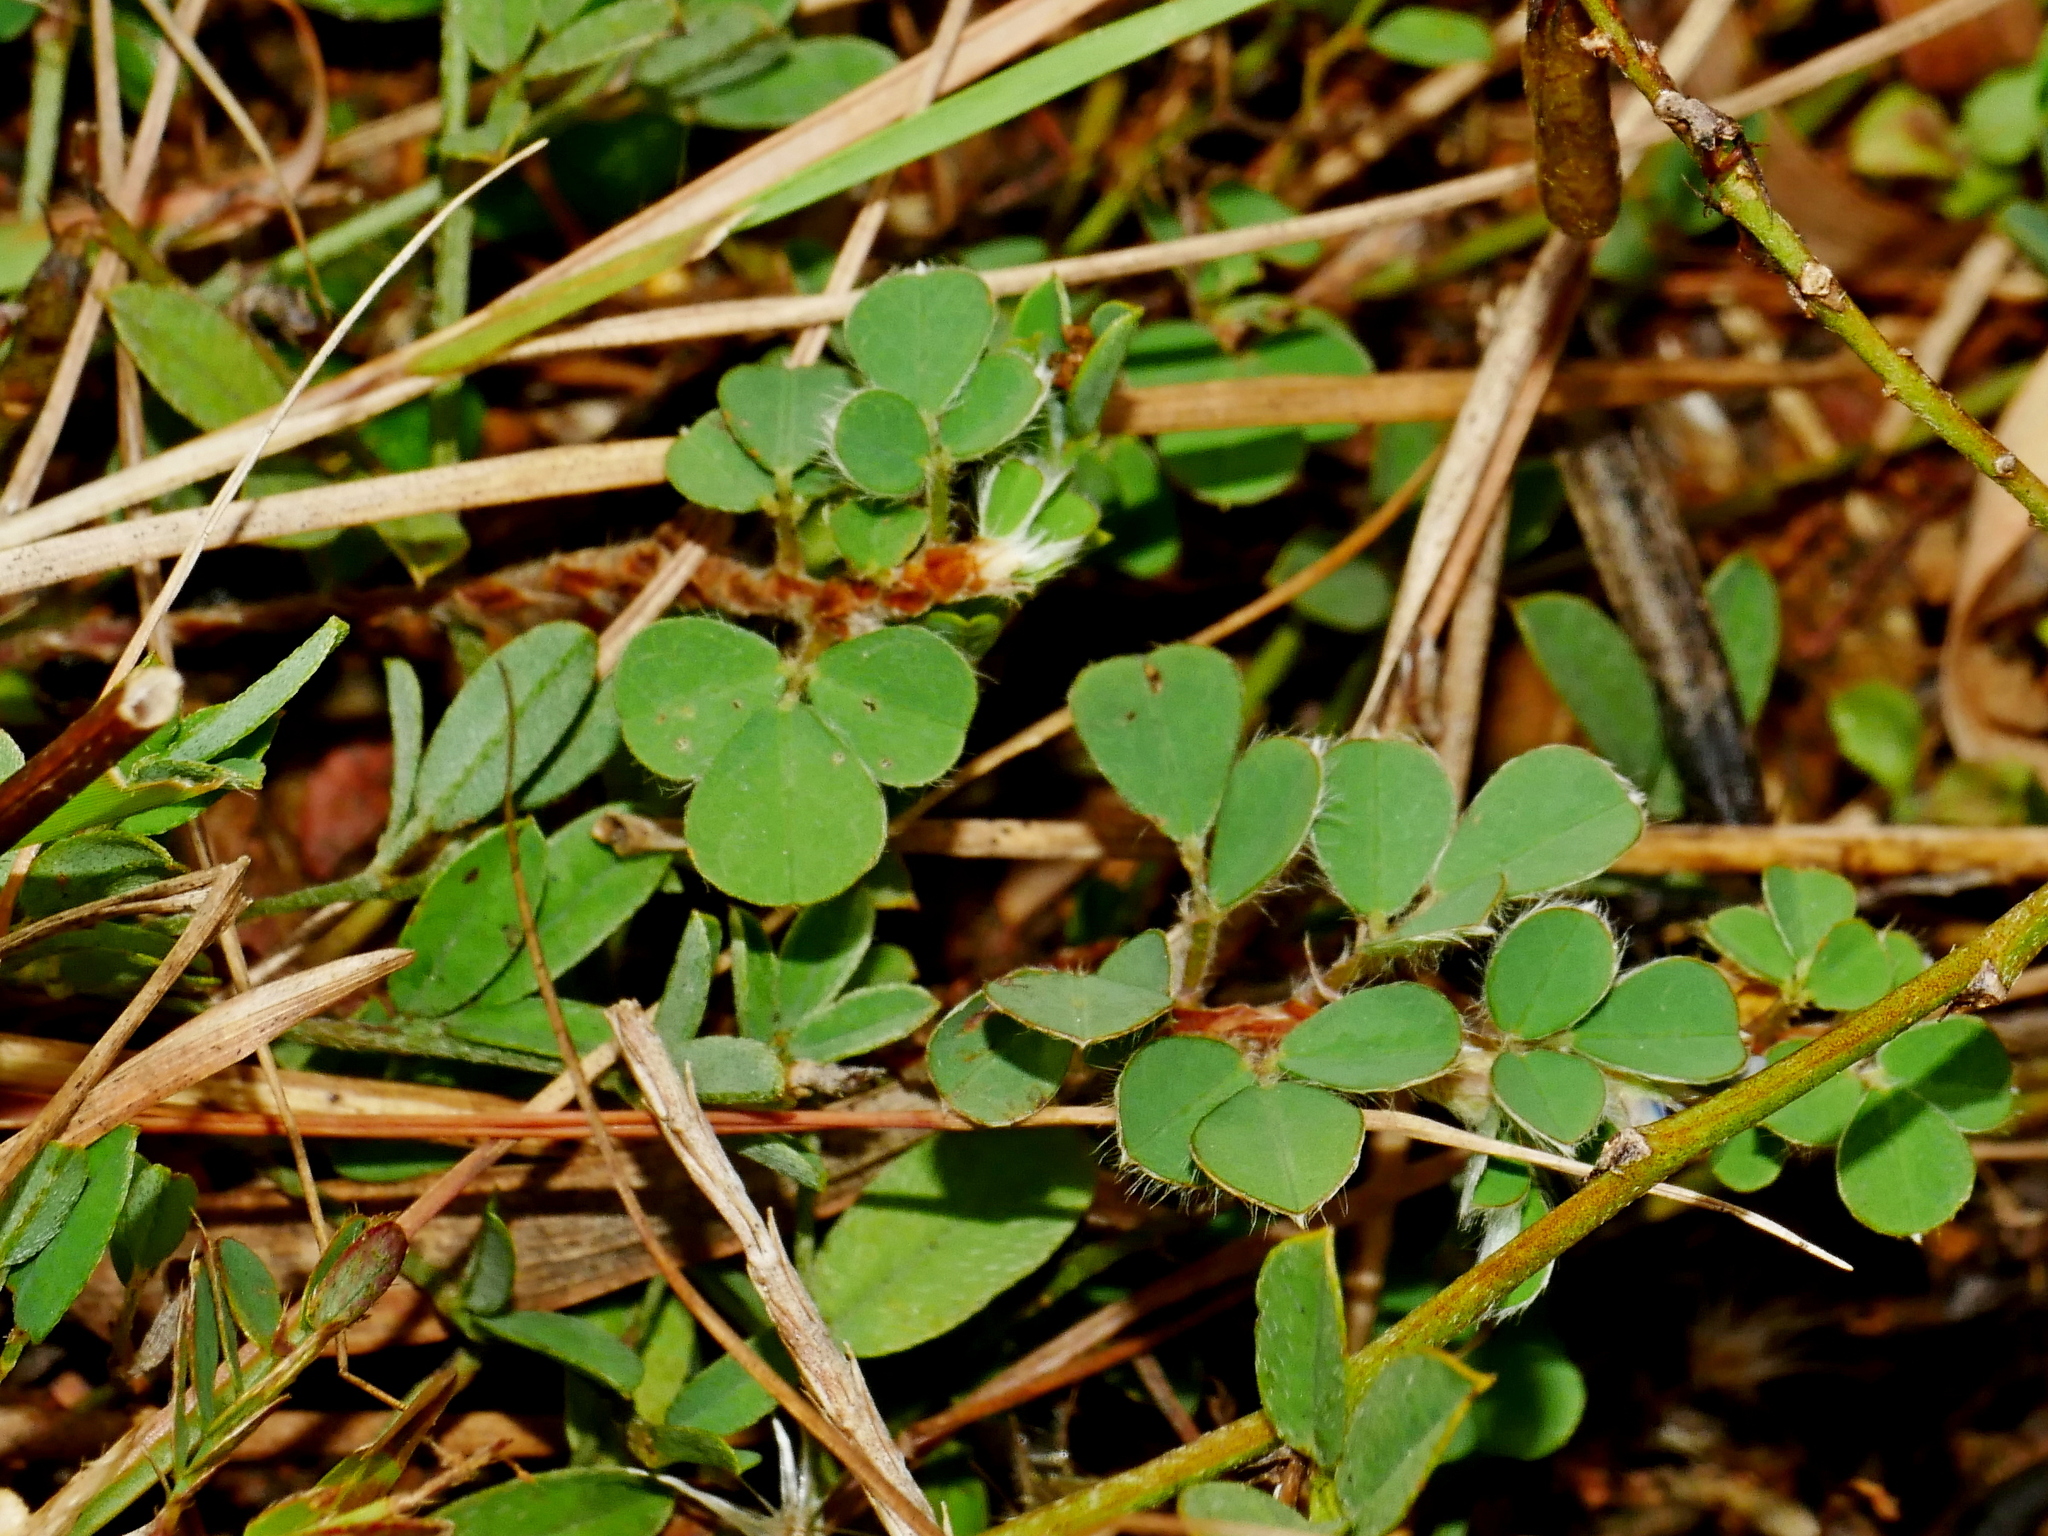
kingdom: Plantae
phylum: Tracheophyta
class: Magnoliopsida
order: Fabales
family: Fabaceae
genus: Grona
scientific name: Grona triflora
